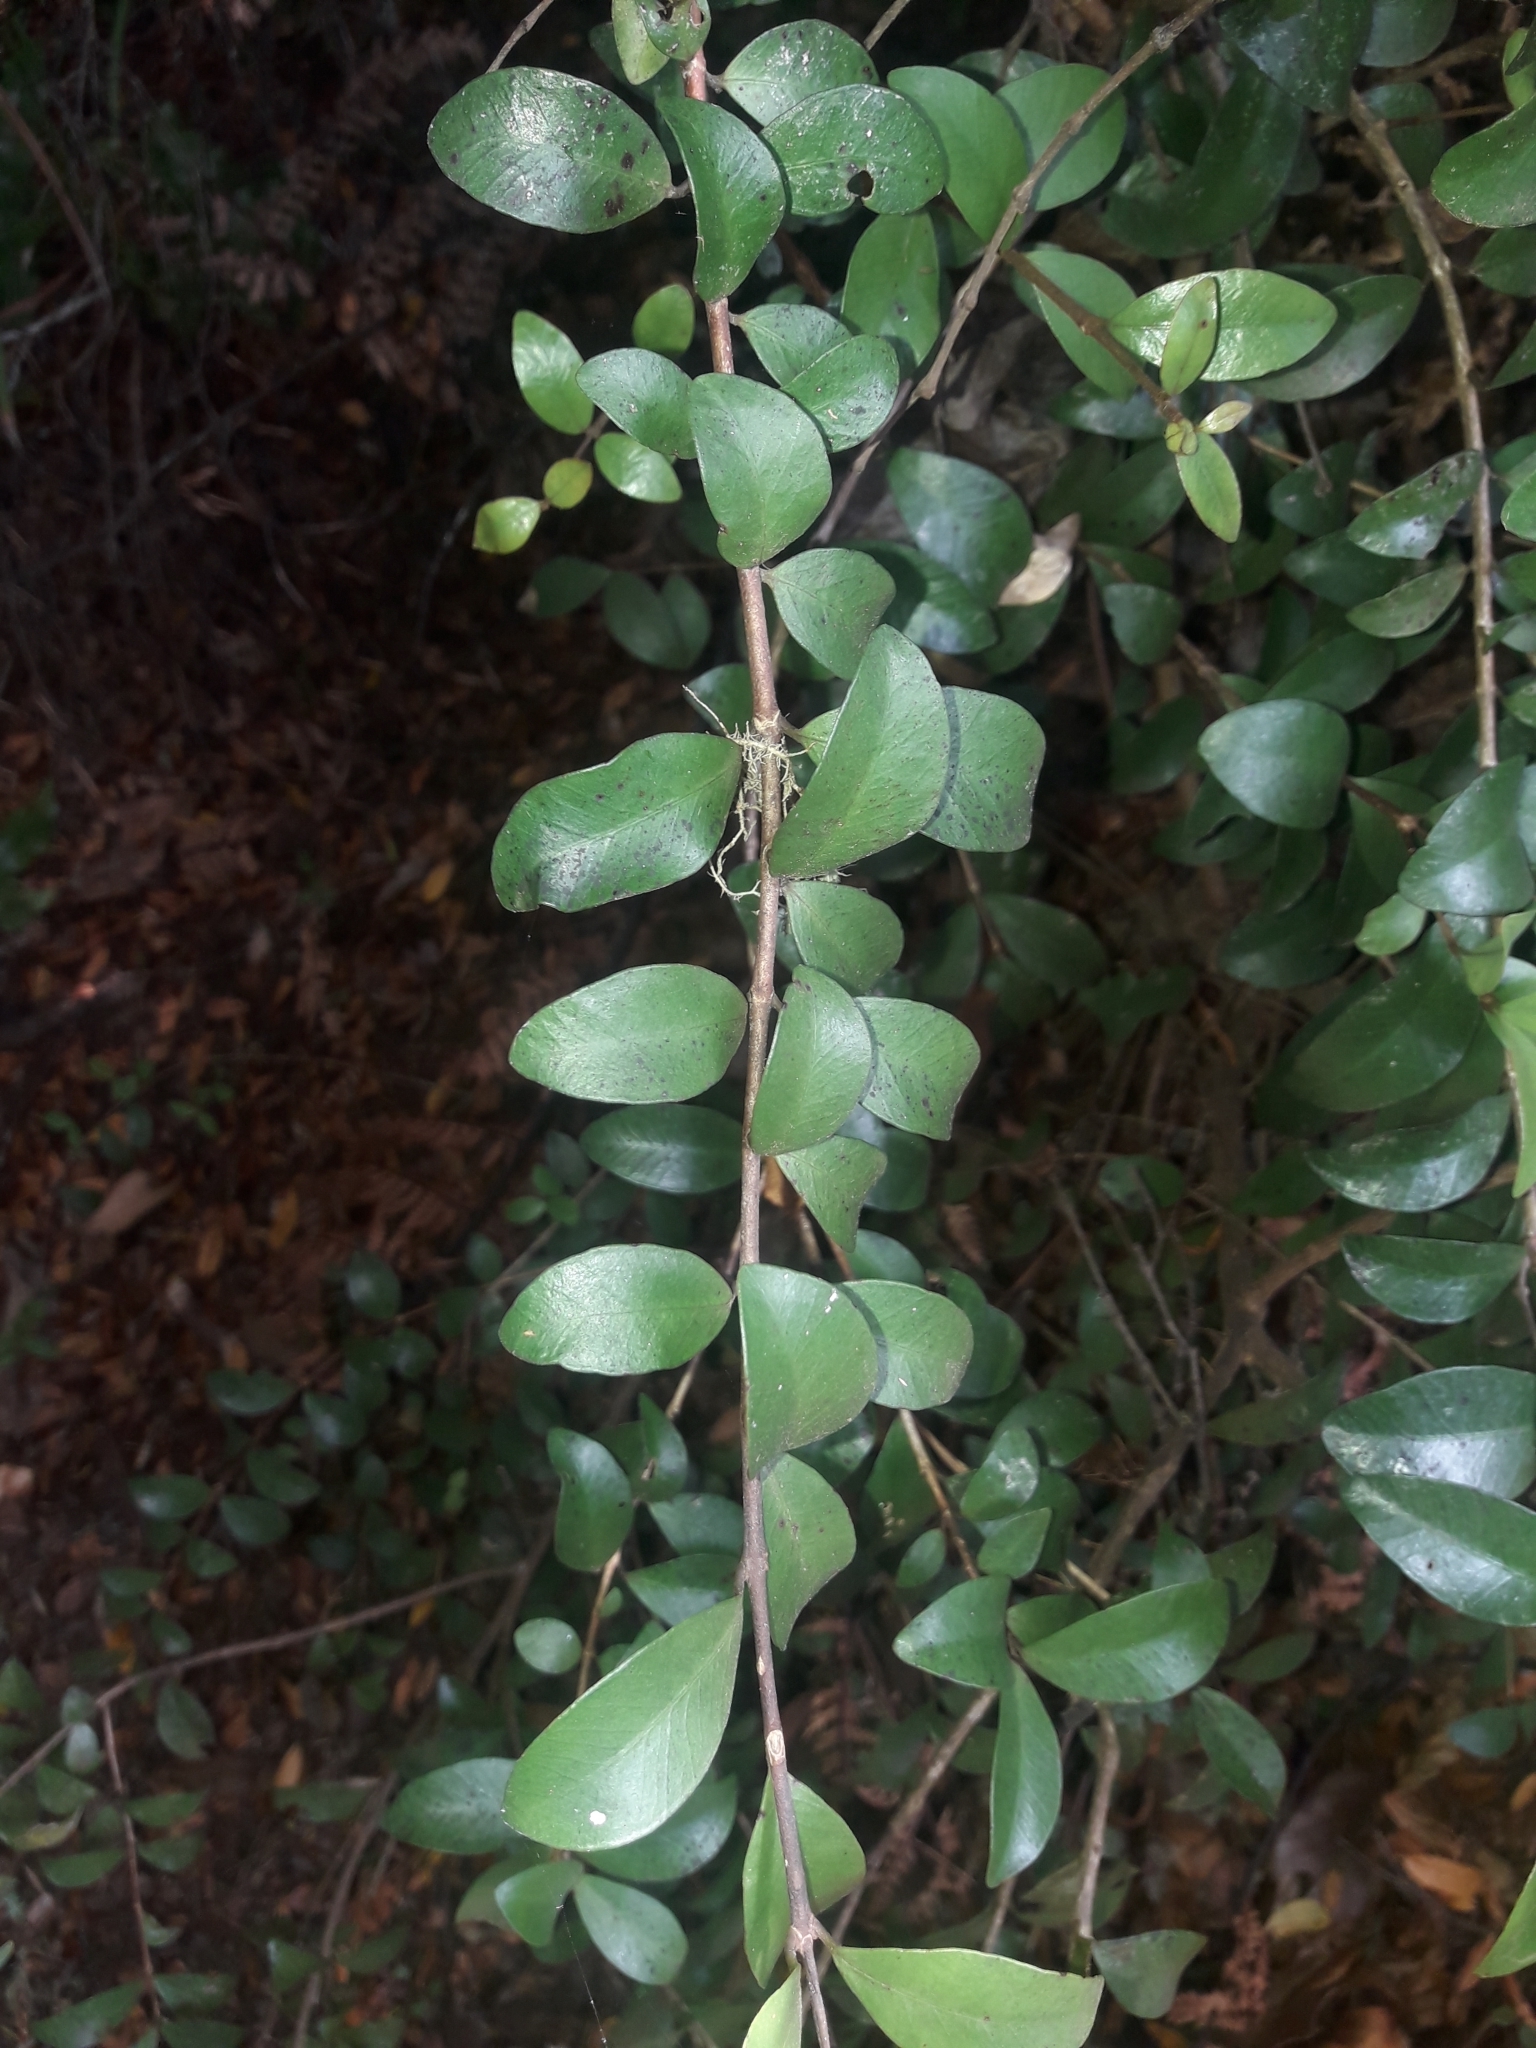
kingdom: Plantae
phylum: Tracheophyta
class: Magnoliopsida
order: Myrtales
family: Myrtaceae
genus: Metrosideros
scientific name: Metrosideros fulgens
